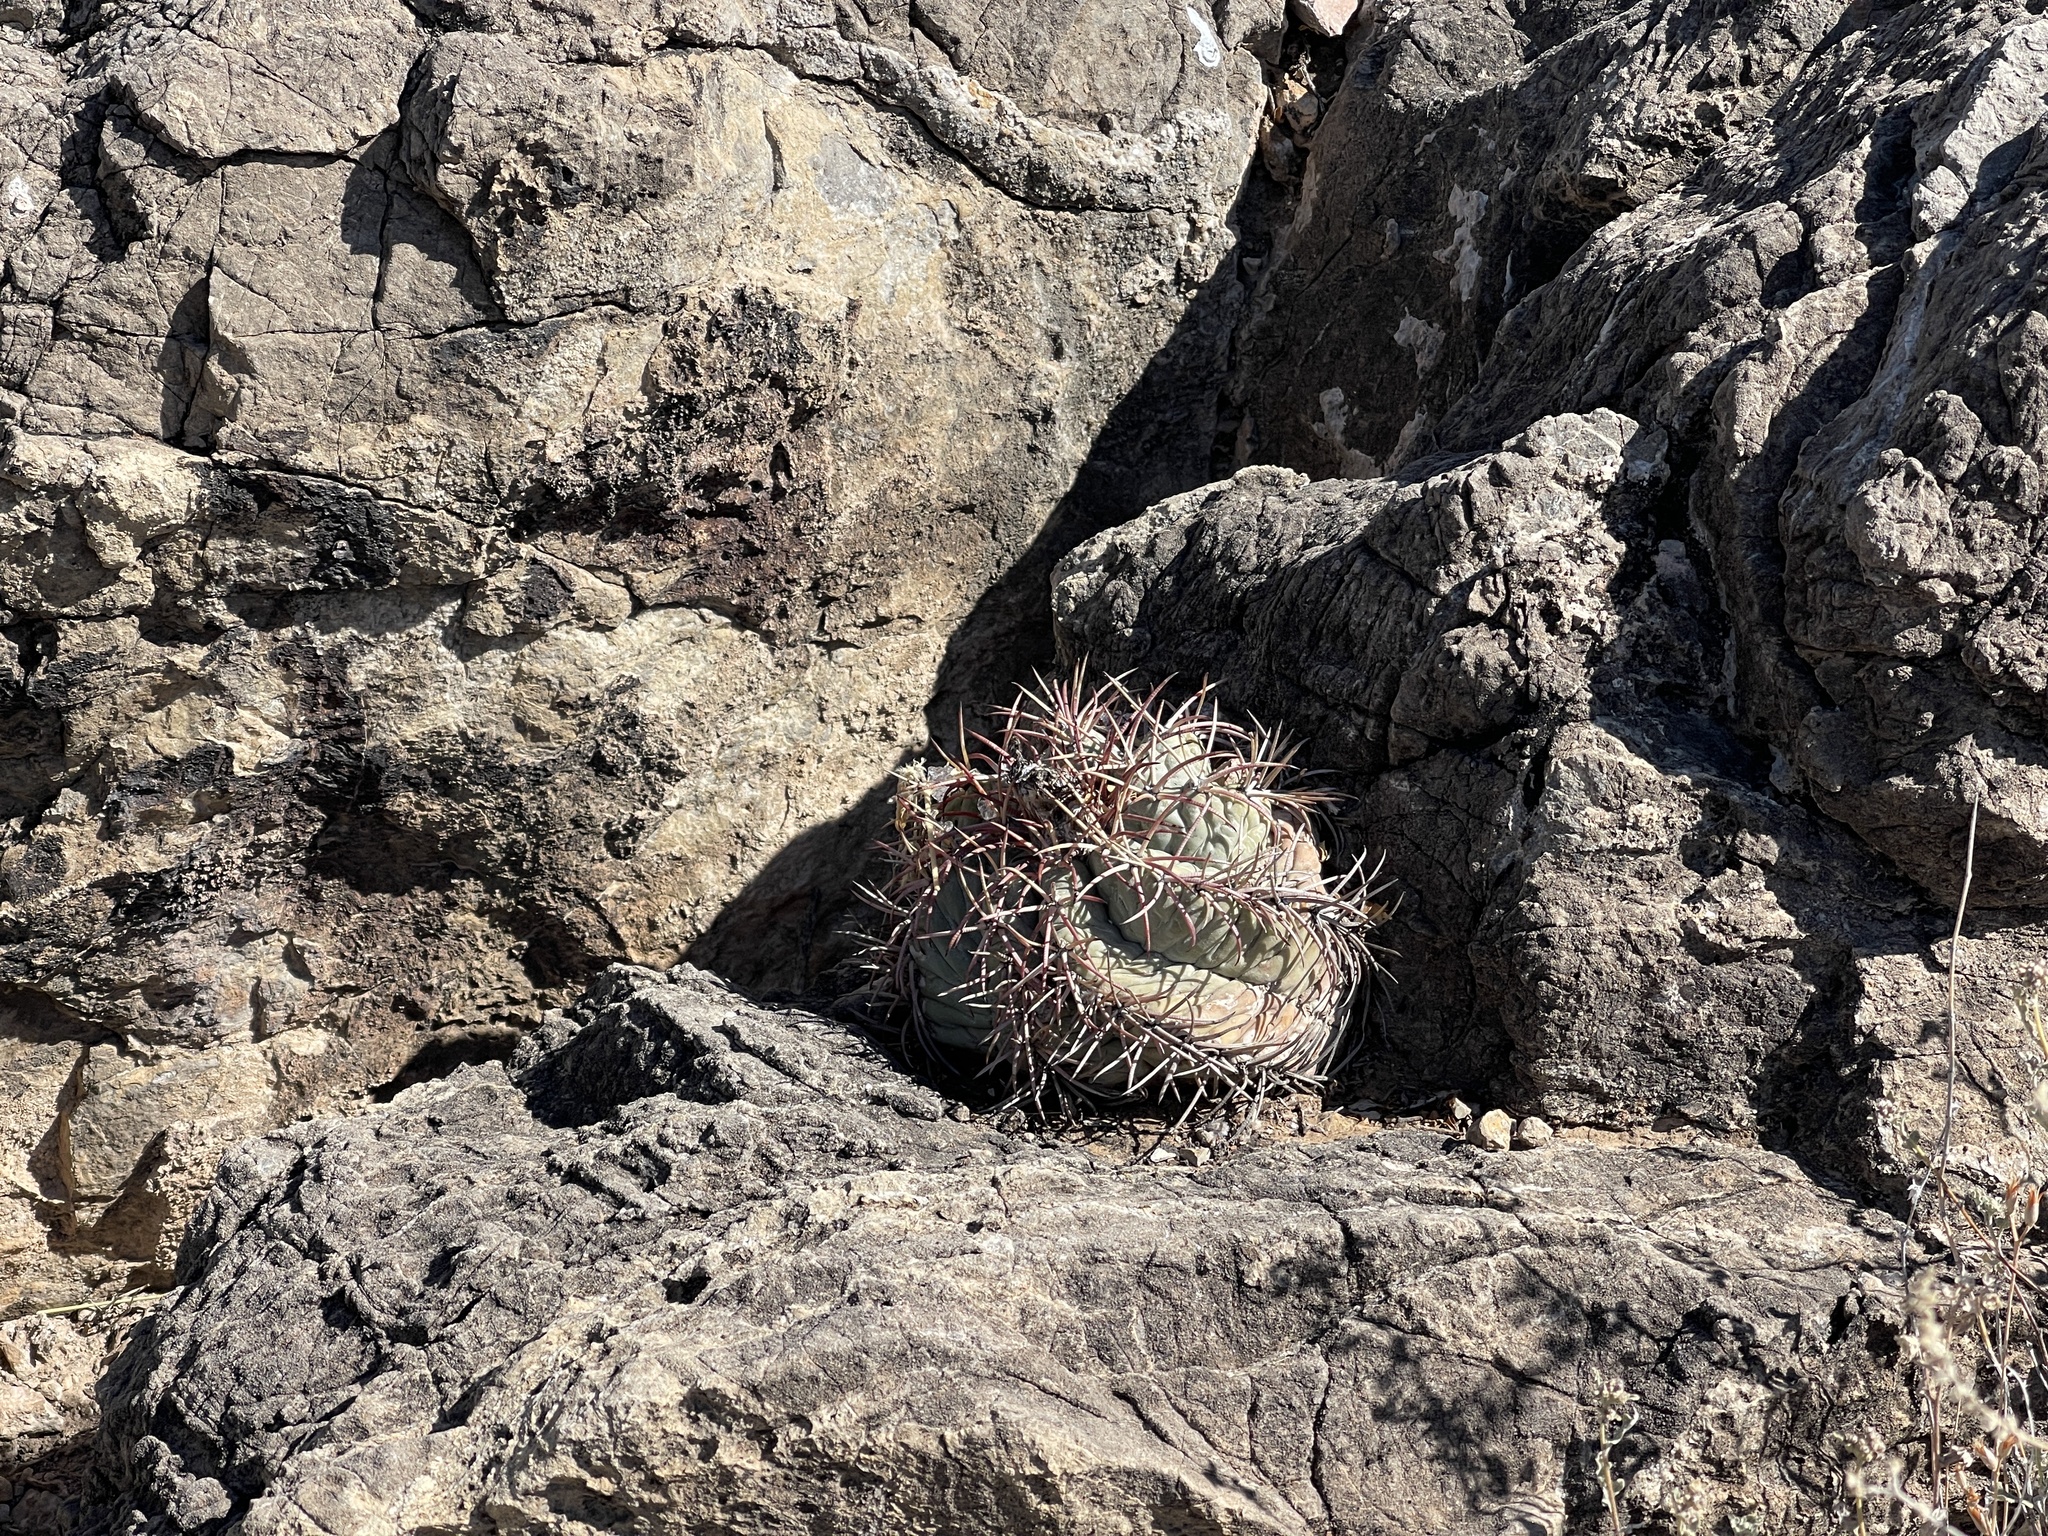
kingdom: Plantae
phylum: Tracheophyta
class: Magnoliopsida
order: Caryophyllales
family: Cactaceae
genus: Echinocactus
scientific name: Echinocactus horizonthalonius
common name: Devilshead
